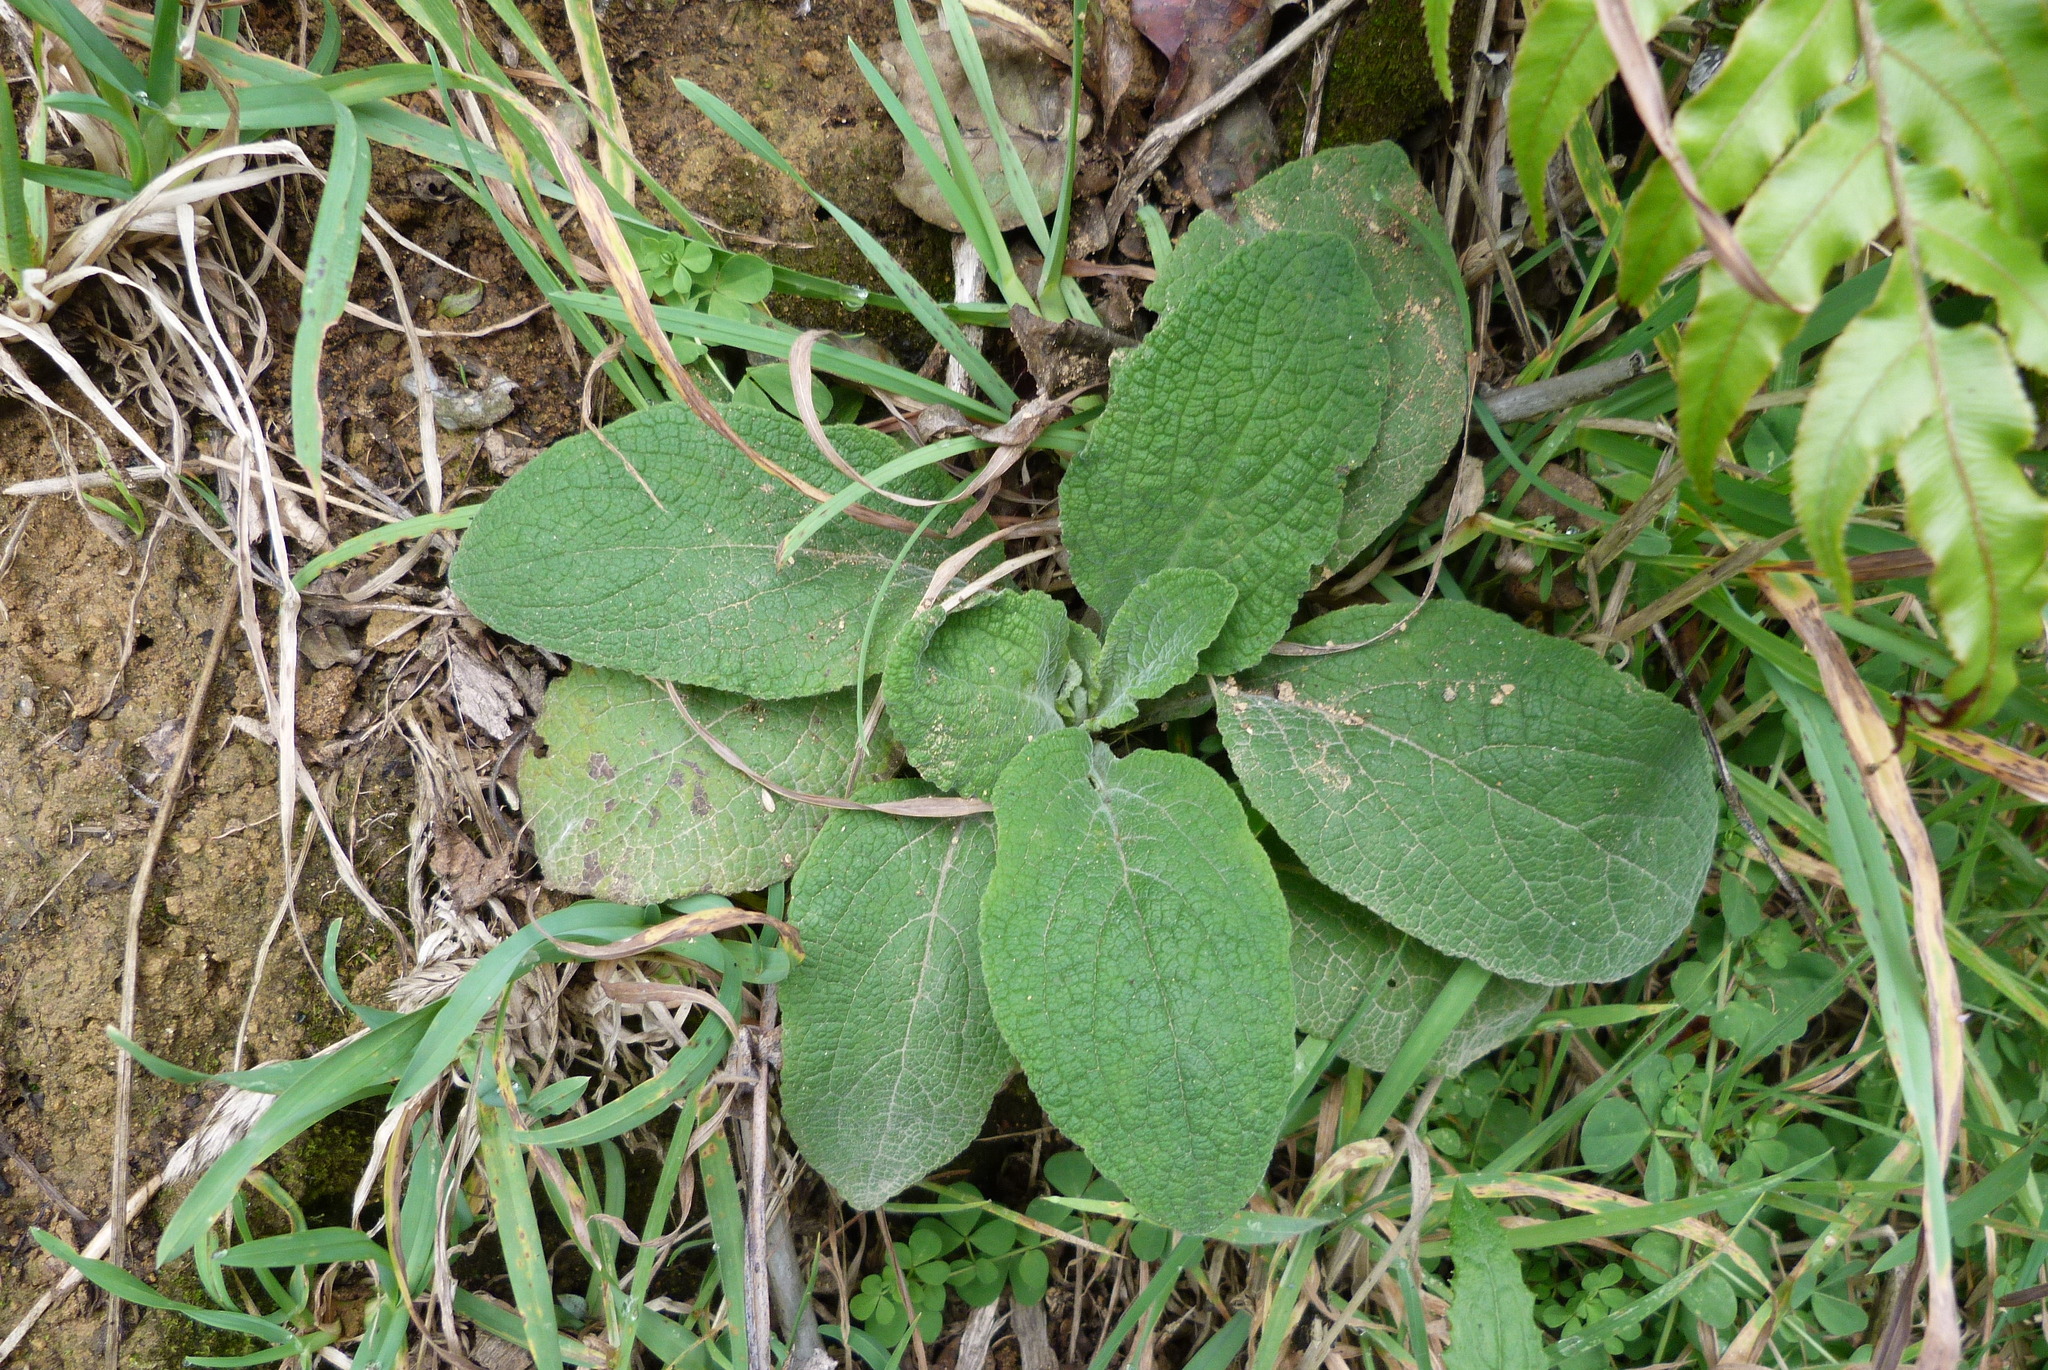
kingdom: Plantae
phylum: Tracheophyta
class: Magnoliopsida
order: Lamiales
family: Plantaginaceae
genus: Digitalis
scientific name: Digitalis purpurea
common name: Foxglove
